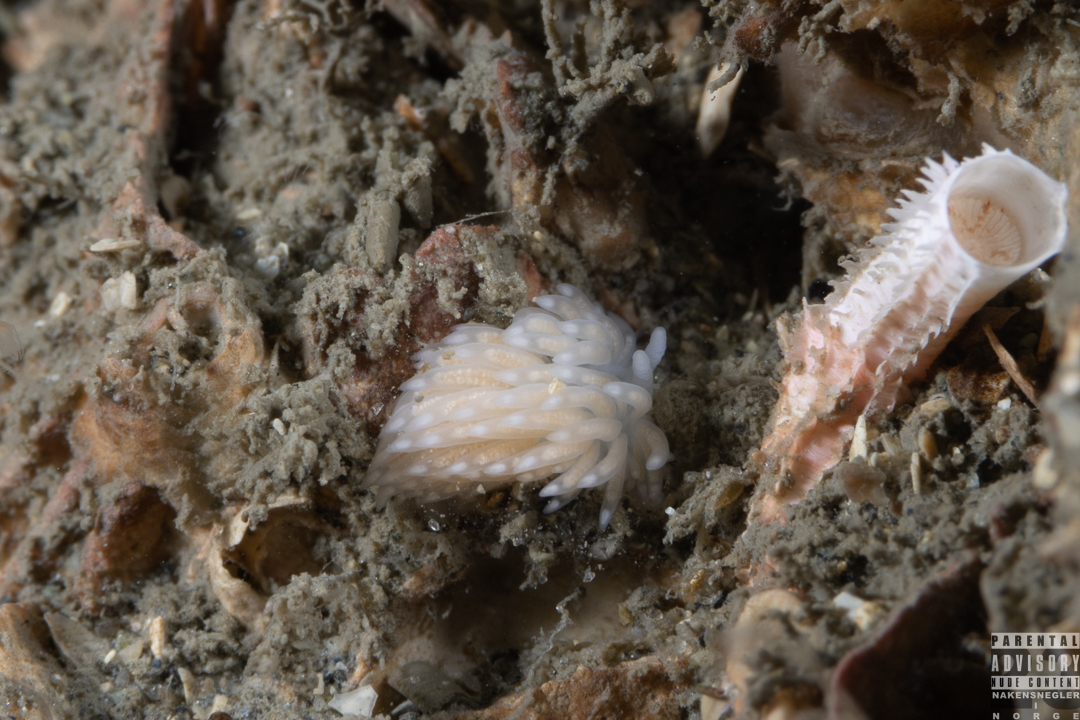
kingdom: Animalia
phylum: Mollusca
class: Gastropoda
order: Nudibranchia
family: Aeolidiidae
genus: Aeolidiella
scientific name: Aeolidiella glauca
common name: Orange-brown aeolid
